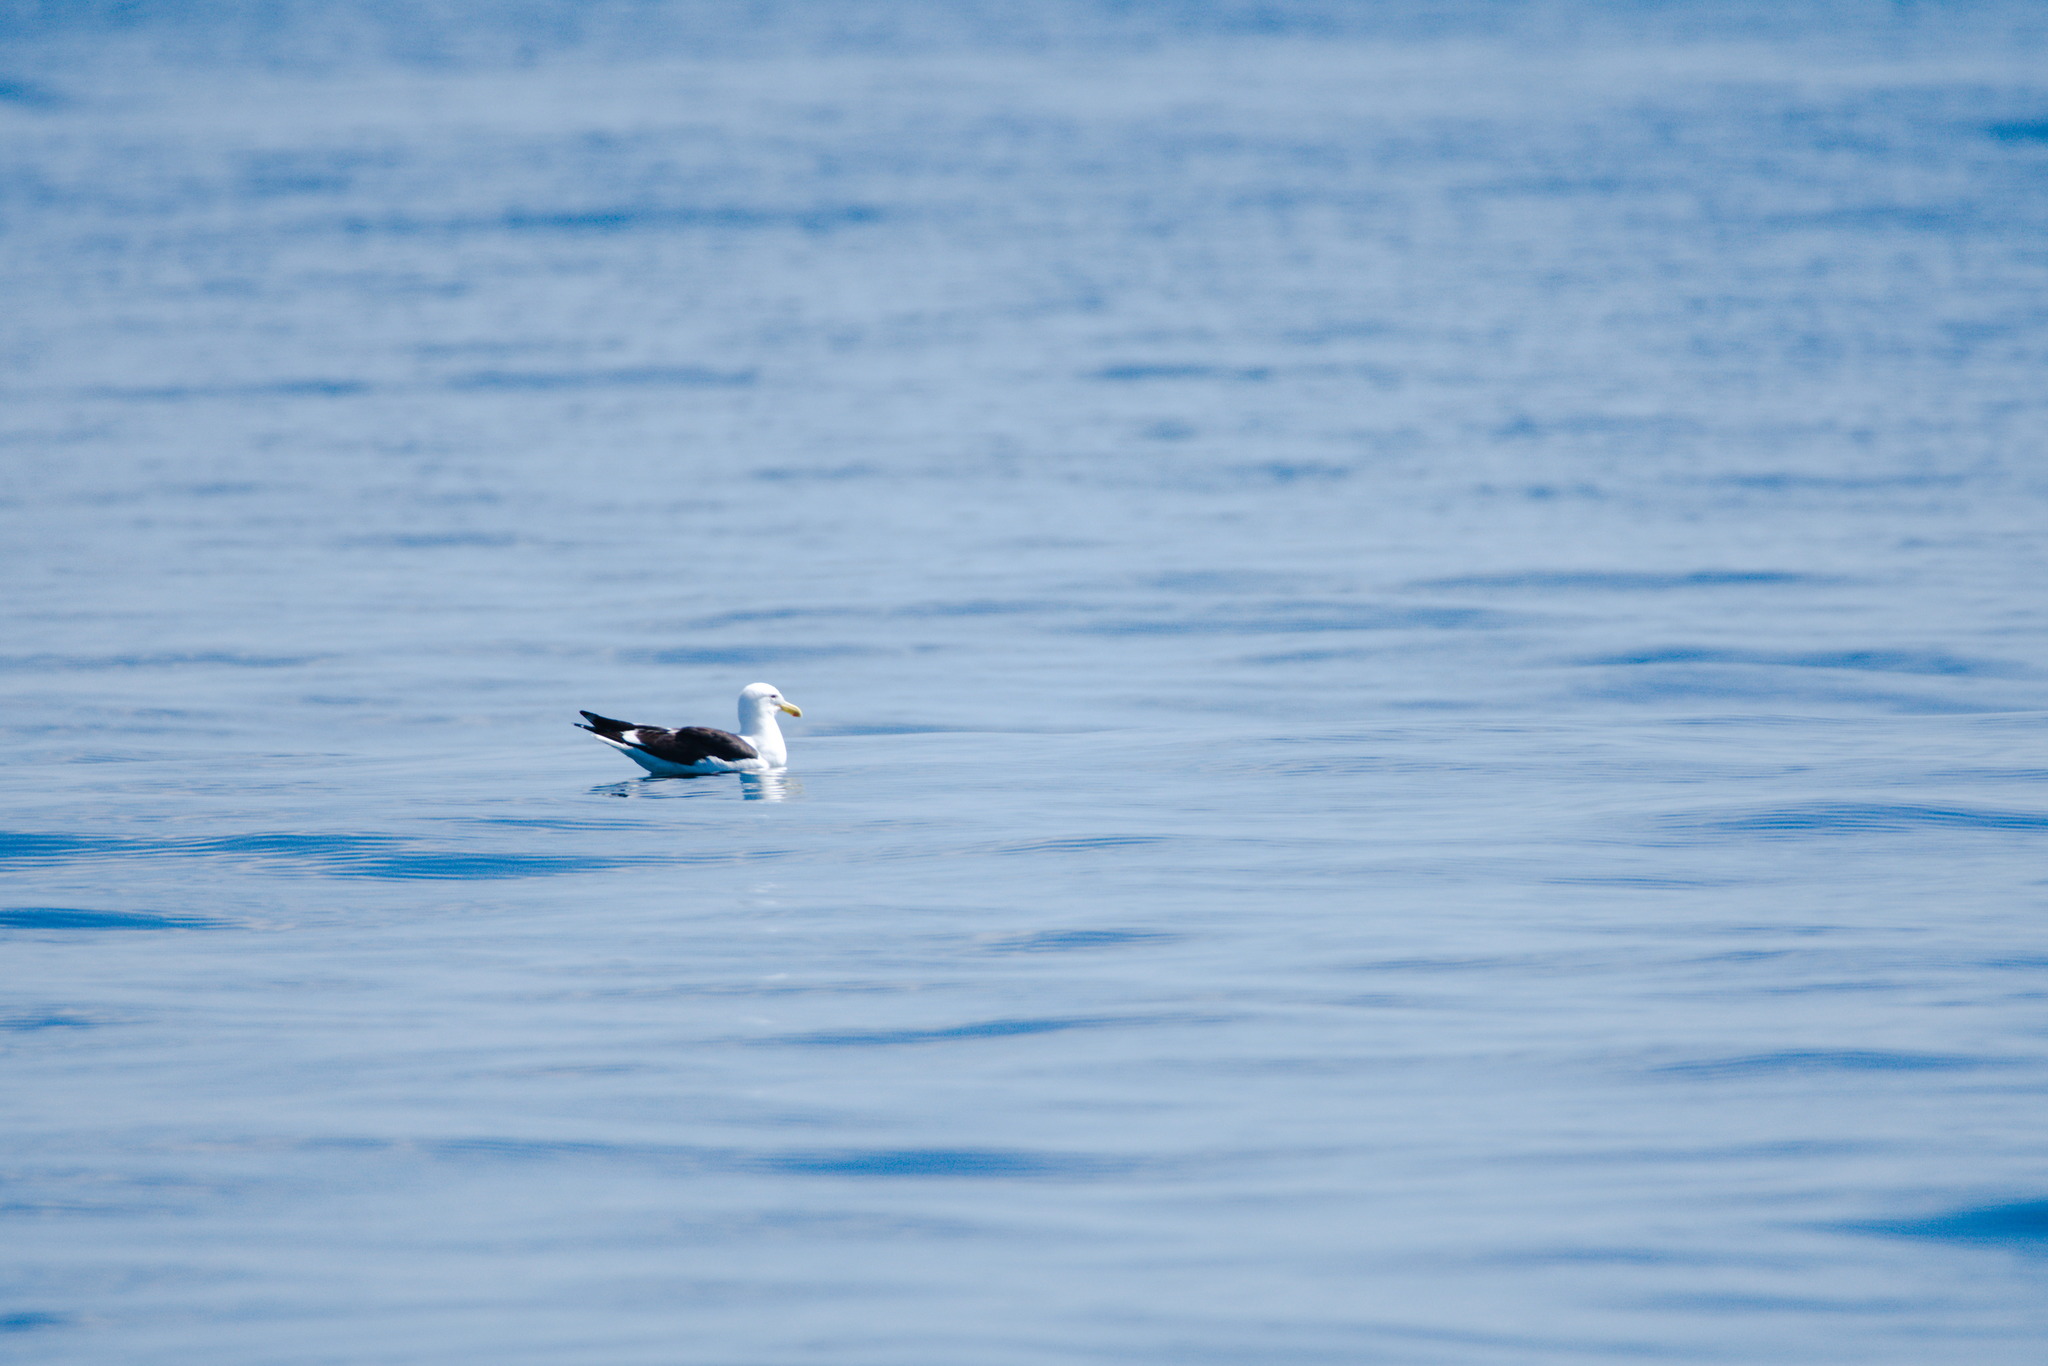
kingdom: Animalia
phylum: Chordata
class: Aves
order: Charadriiformes
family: Laridae
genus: Larus
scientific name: Larus dominicanus
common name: Kelp gull
